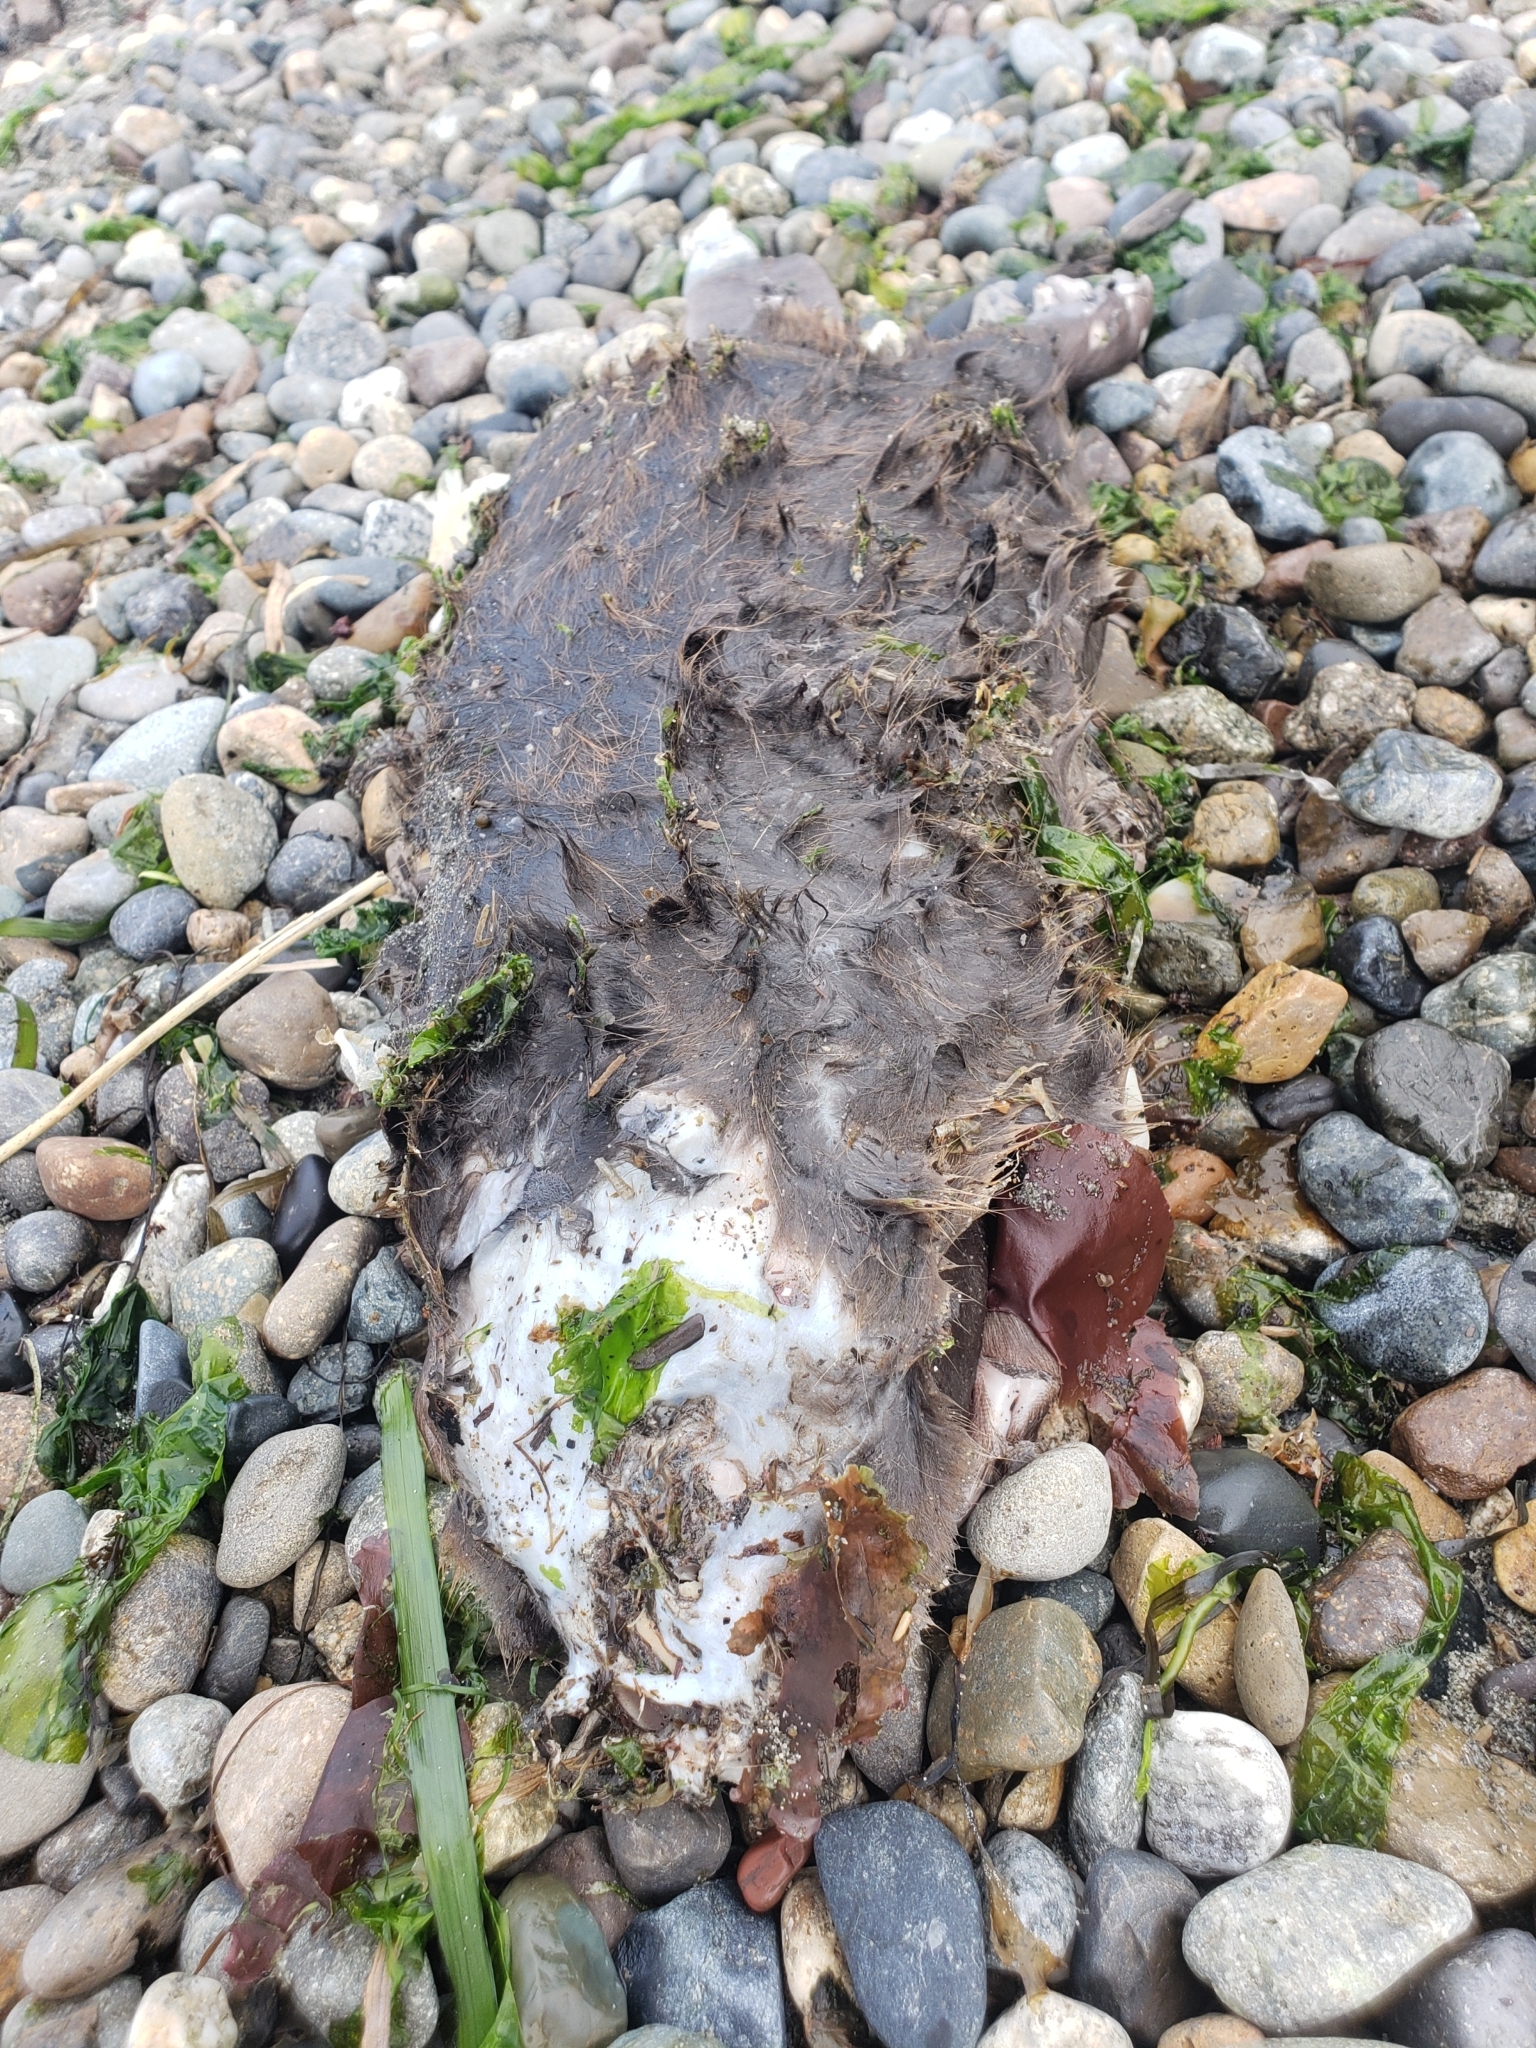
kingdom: Animalia
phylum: Chordata
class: Mammalia
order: Rodentia
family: Castoridae
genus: Castor
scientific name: Castor canadensis
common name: American beaver
